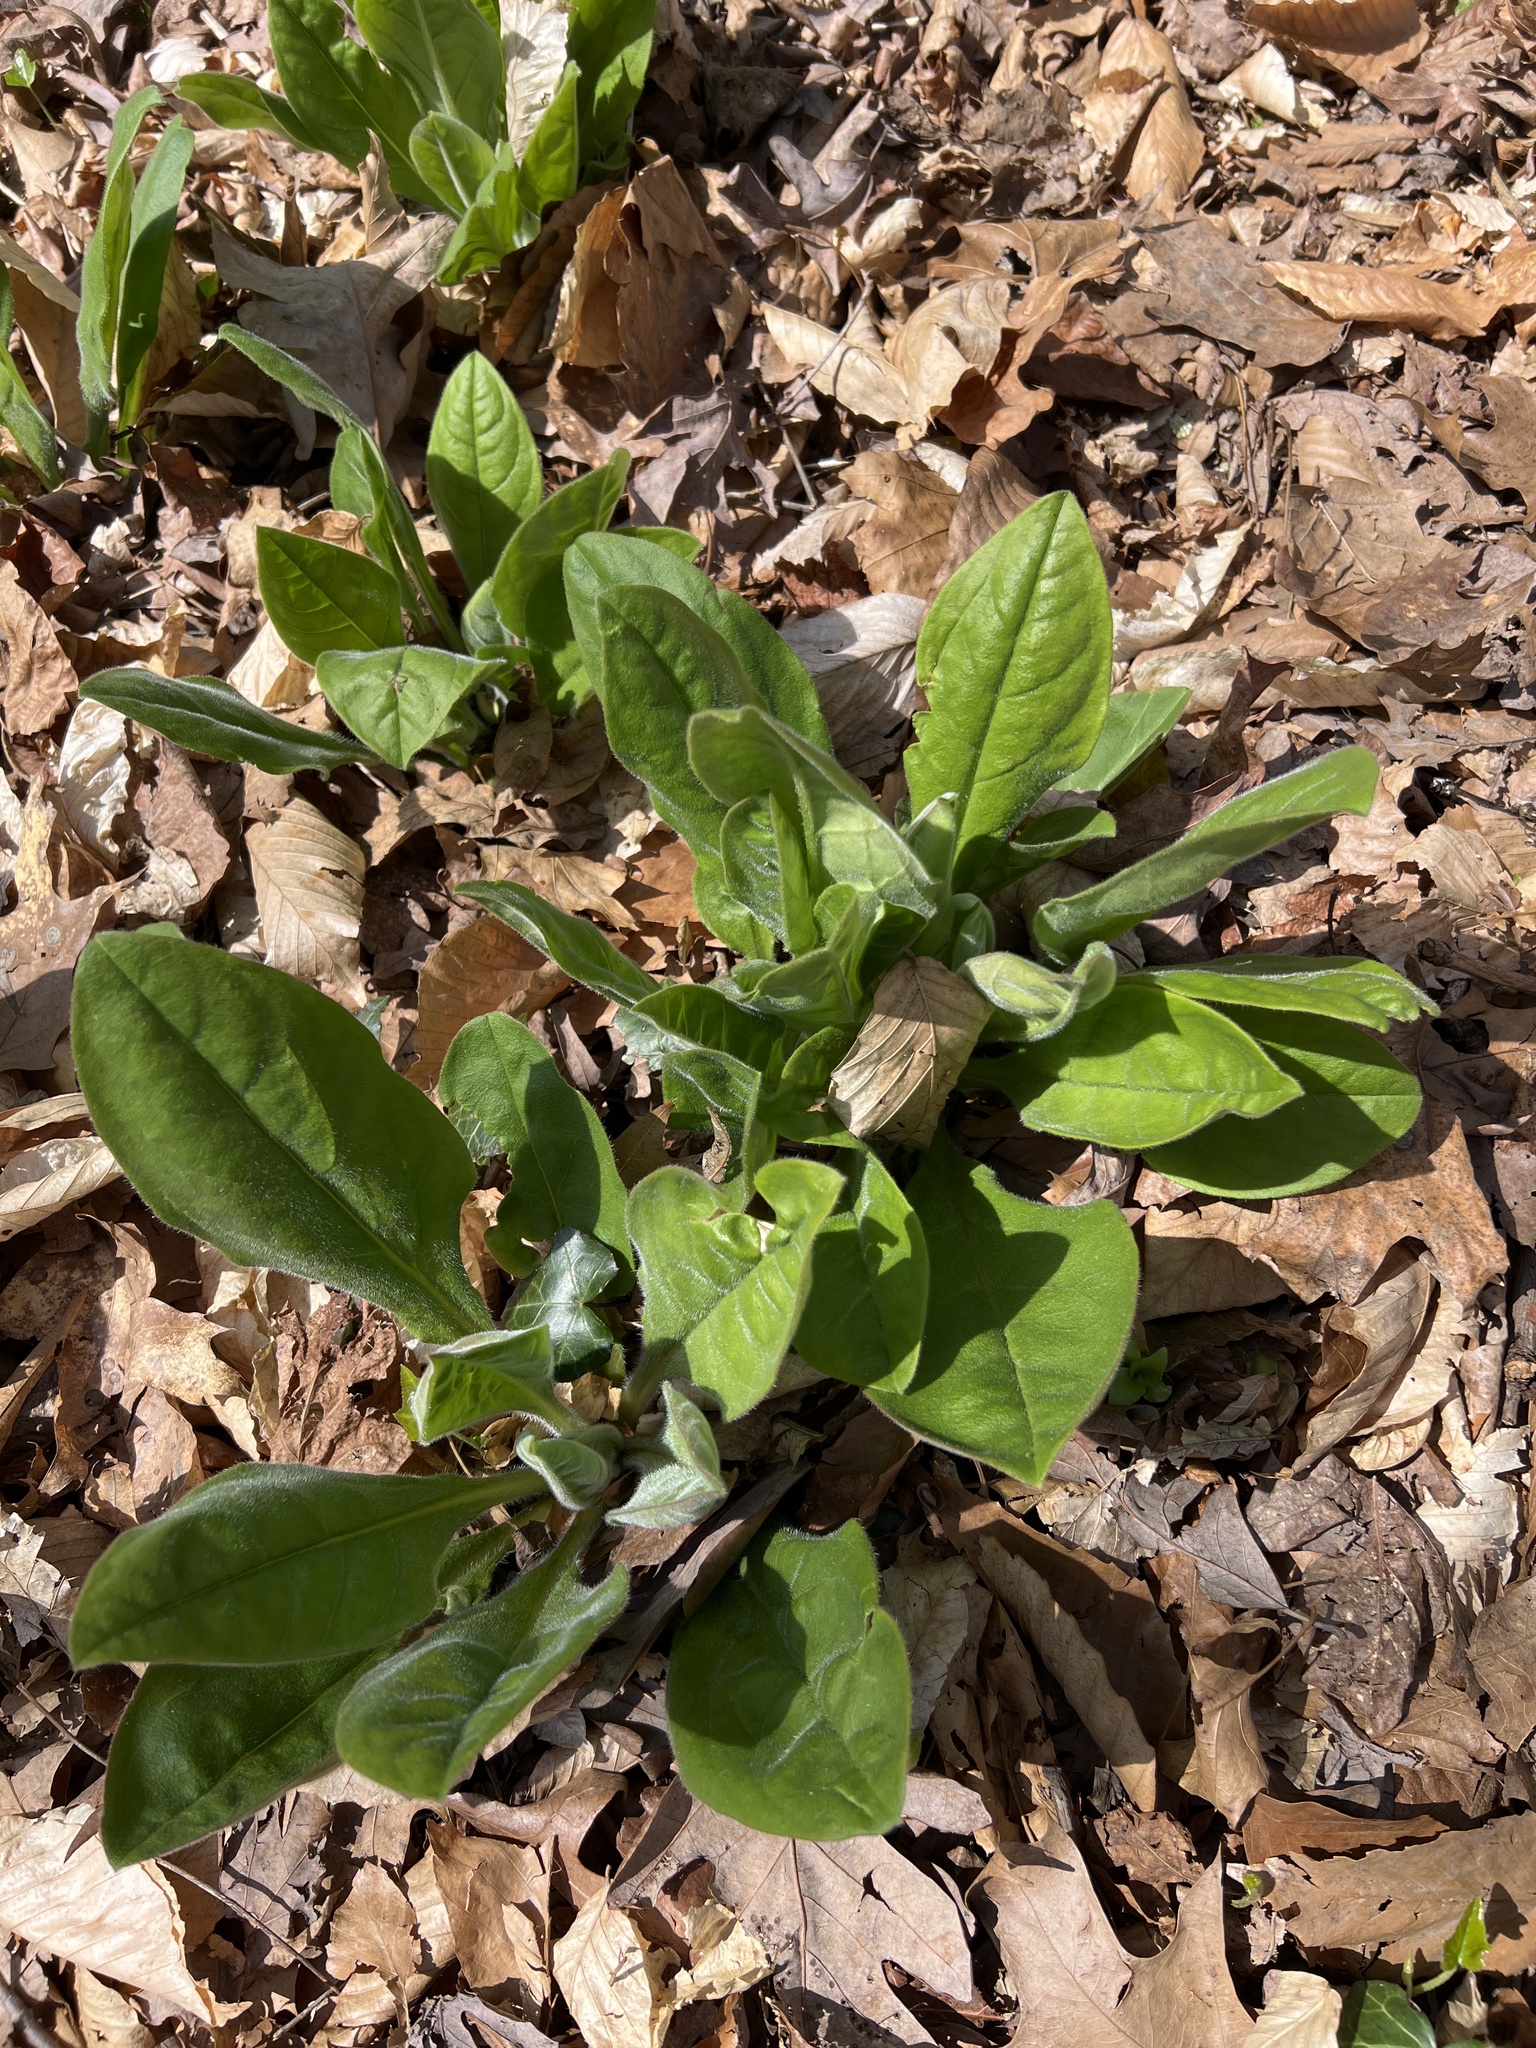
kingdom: Plantae
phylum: Tracheophyta
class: Magnoliopsida
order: Boraginales
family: Boraginaceae
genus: Andersonglossum
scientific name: Andersonglossum virginianum
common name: Wild comfrey
